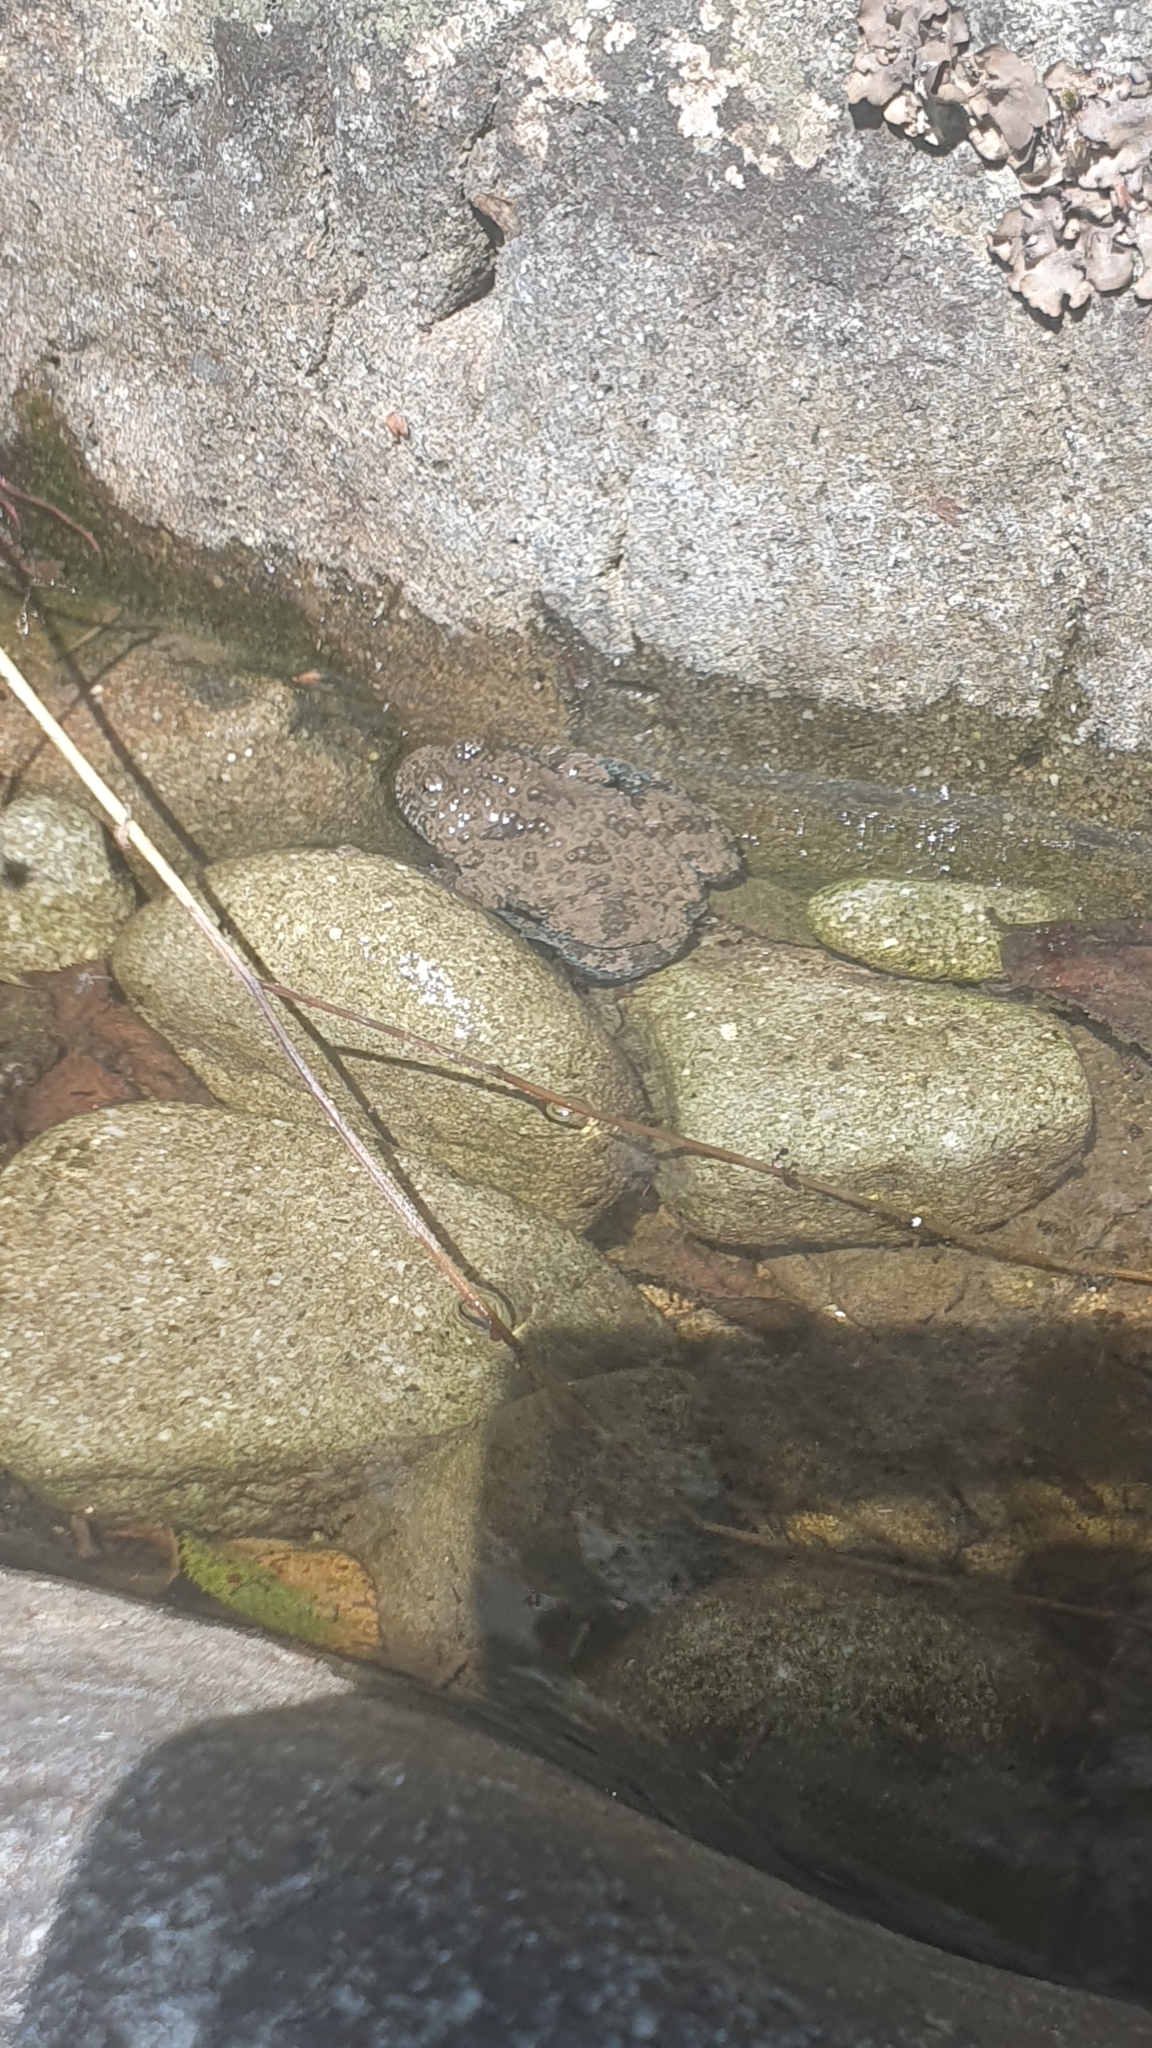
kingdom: Animalia
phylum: Chordata
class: Amphibia
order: Anura
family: Bombinatoridae
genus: Bombina
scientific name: Bombina variegata
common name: Yellow-bellied toad
